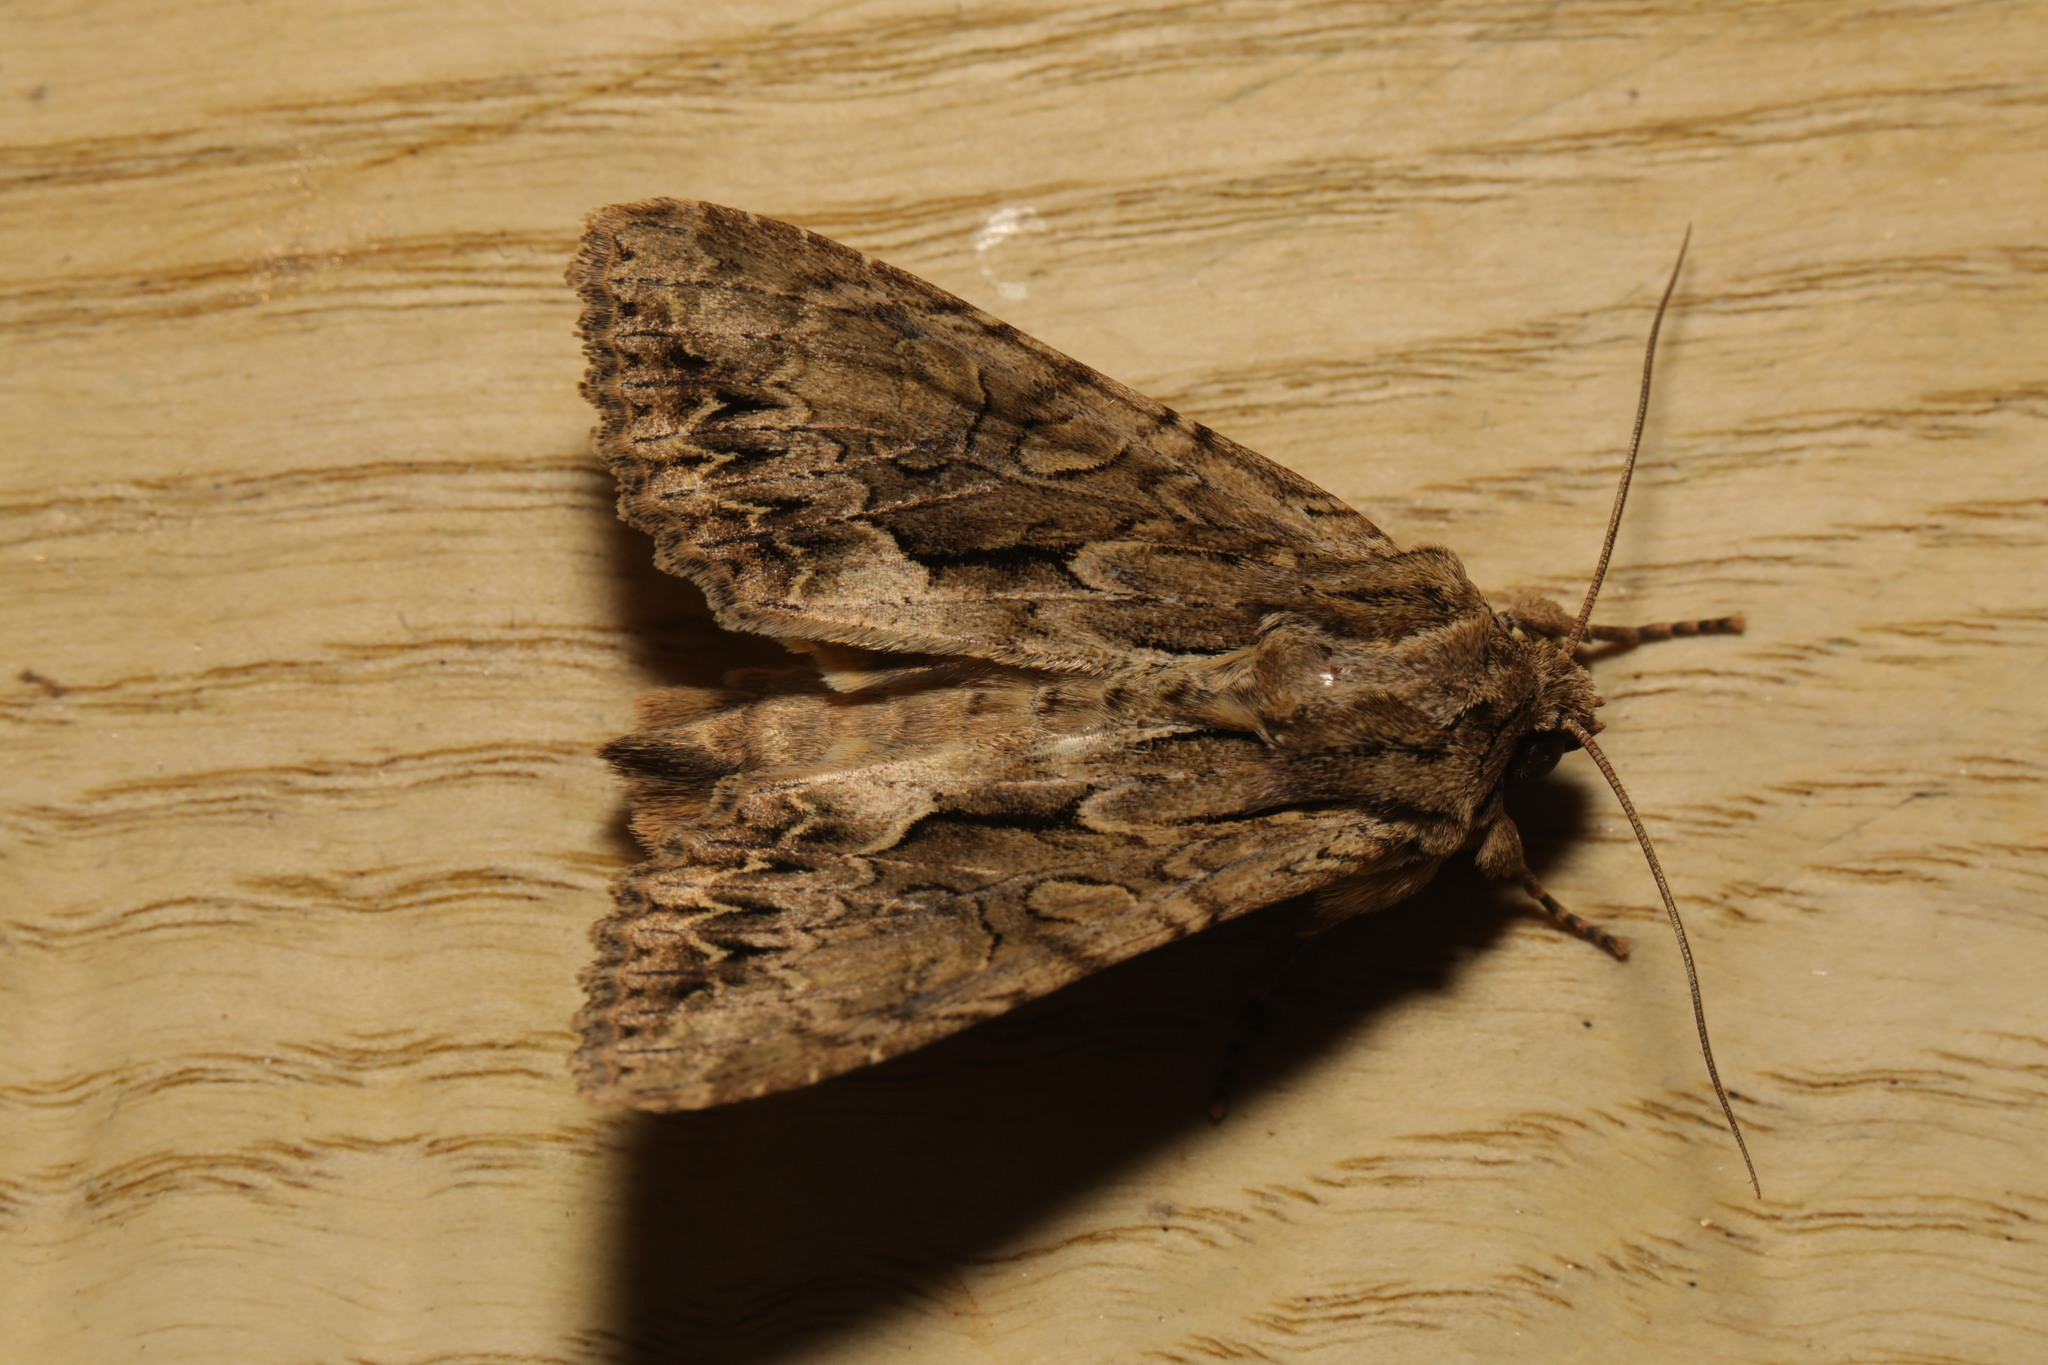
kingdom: Animalia
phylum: Arthropoda
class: Insecta
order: Lepidoptera
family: Noctuidae
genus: Apamea
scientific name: Apamea monoglypha
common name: Dark arches
